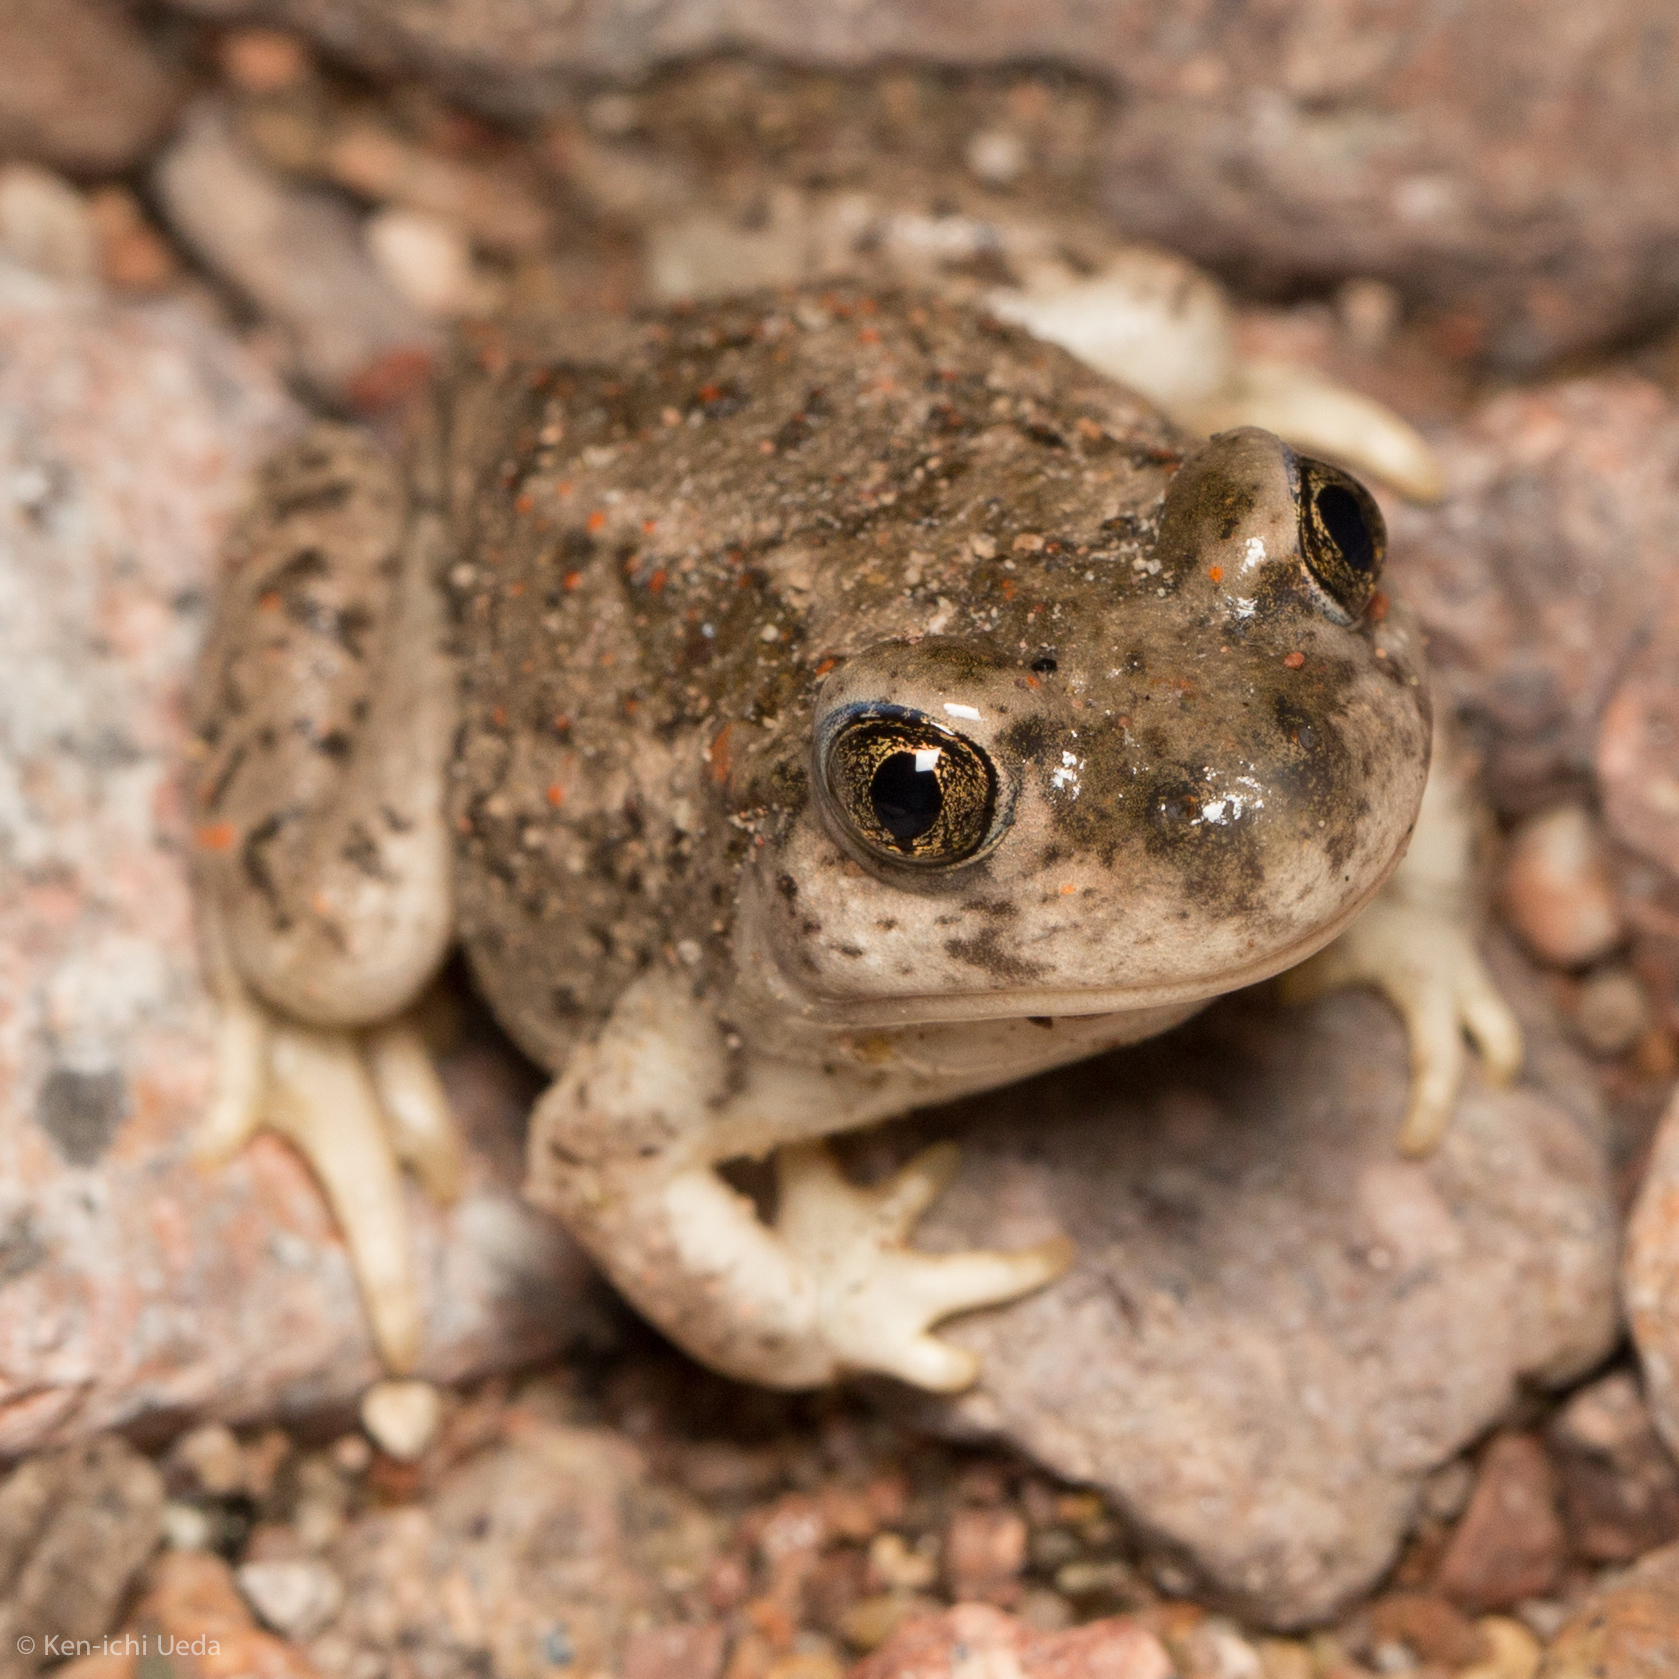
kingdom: Animalia
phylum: Chordata
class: Amphibia
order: Anura
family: Scaphiopodidae
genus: Spea
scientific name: Spea multiplicata
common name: Mexican spadefoot
